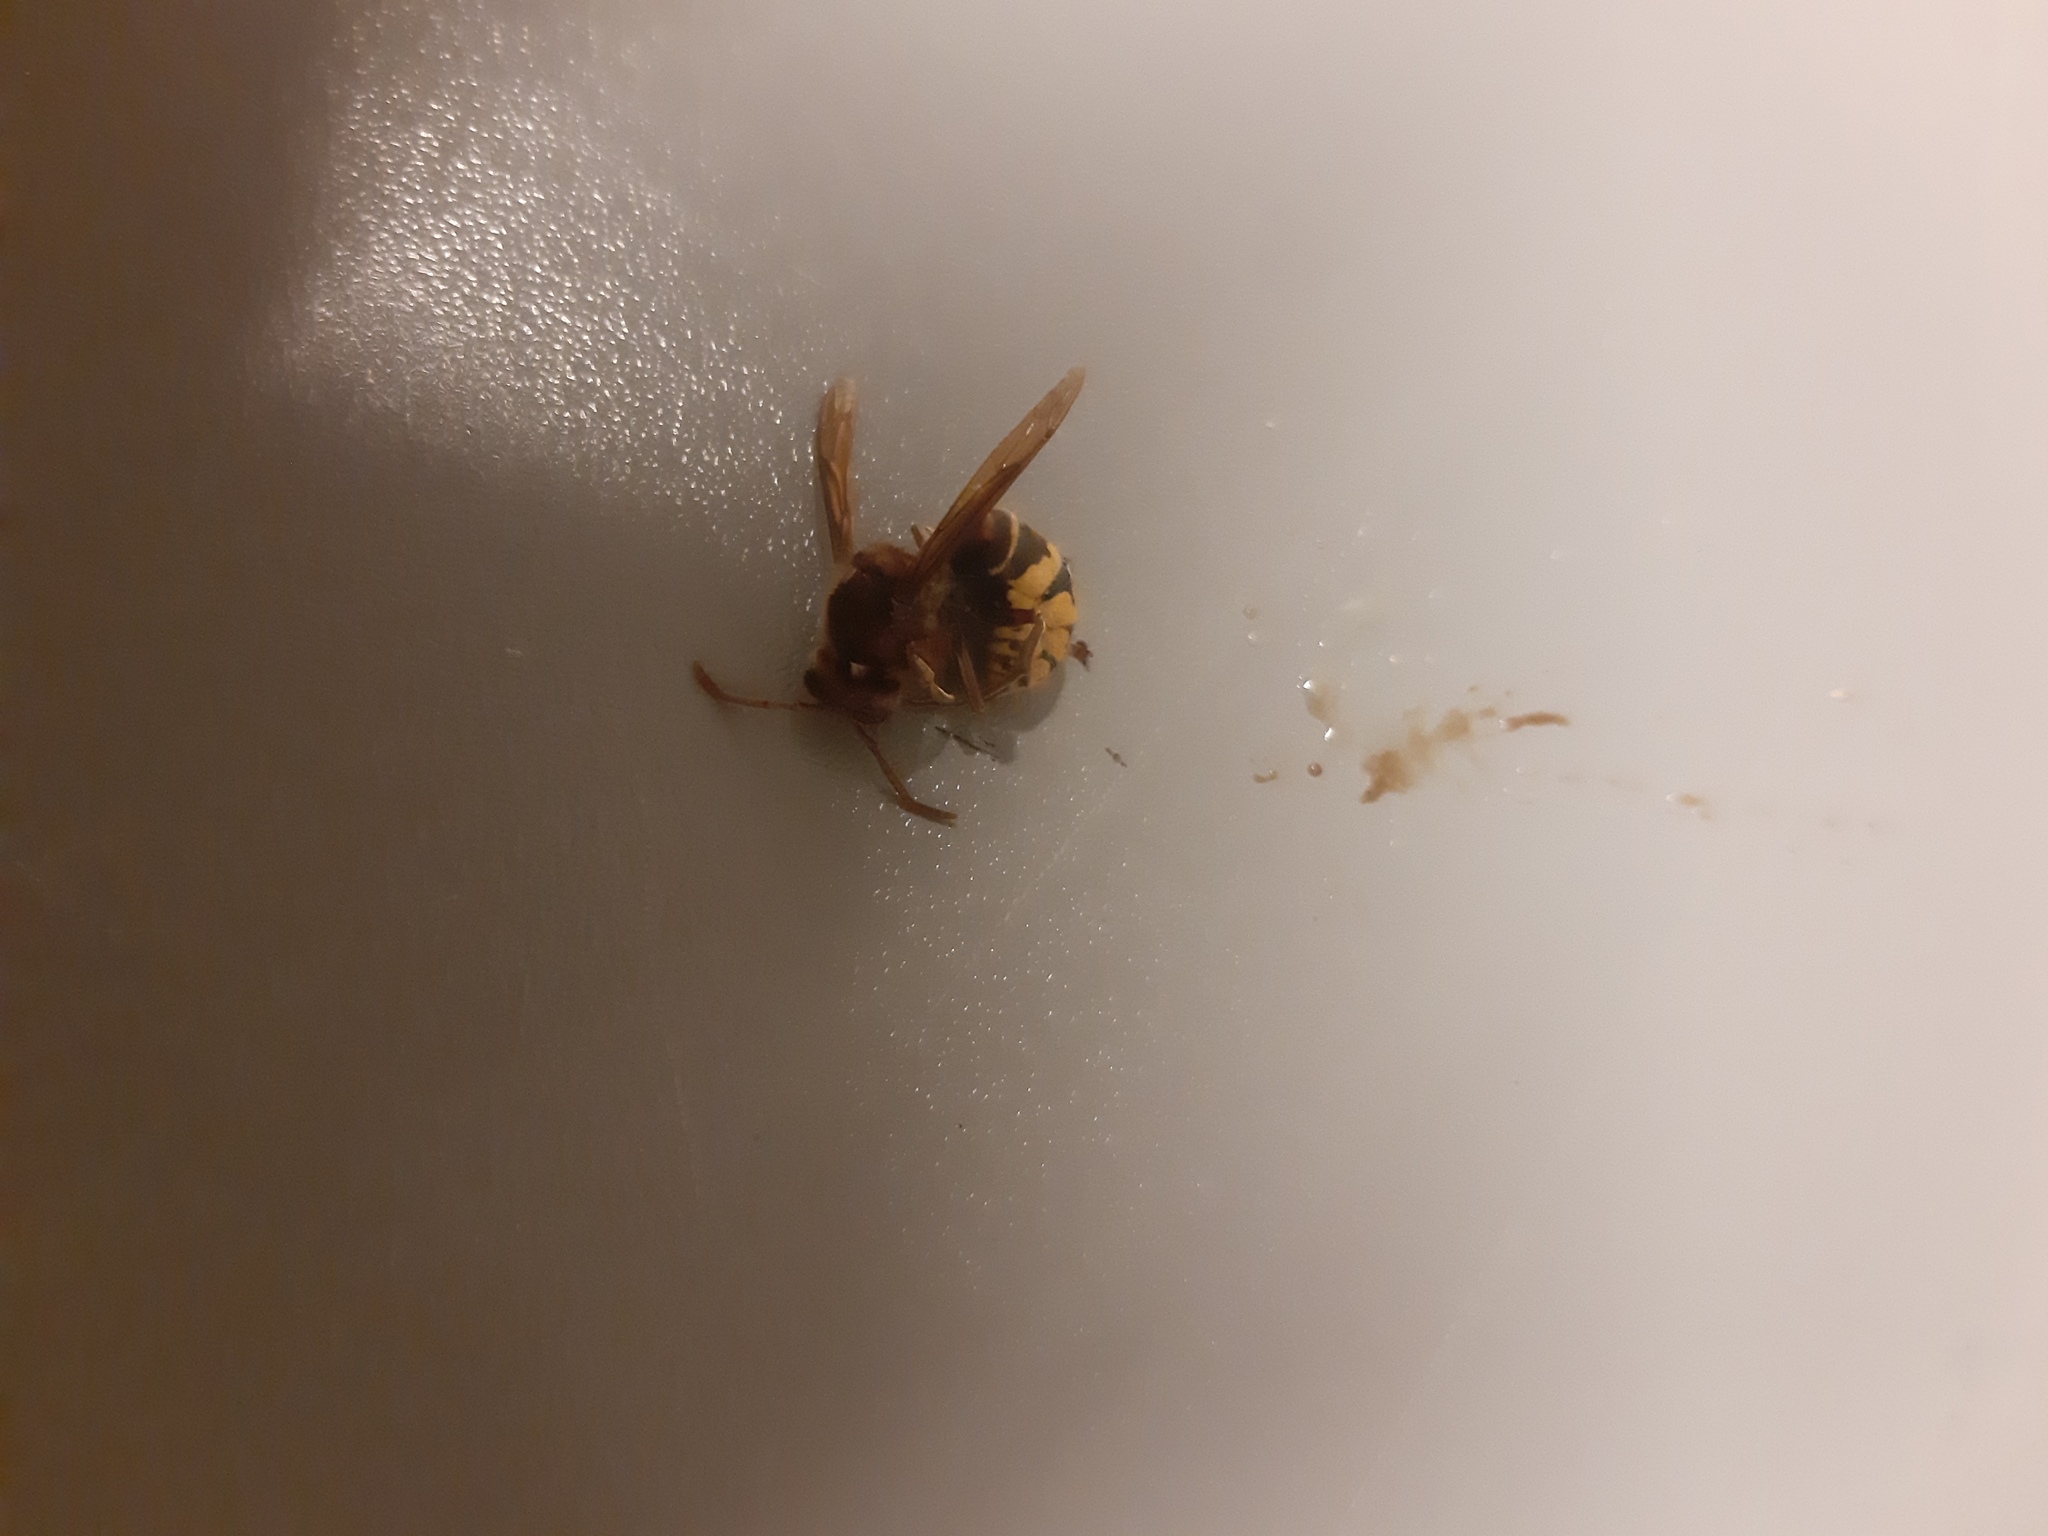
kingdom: Animalia
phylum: Arthropoda
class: Insecta
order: Hymenoptera
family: Vespidae
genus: Vespa
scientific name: Vespa crabro
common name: Hornet
